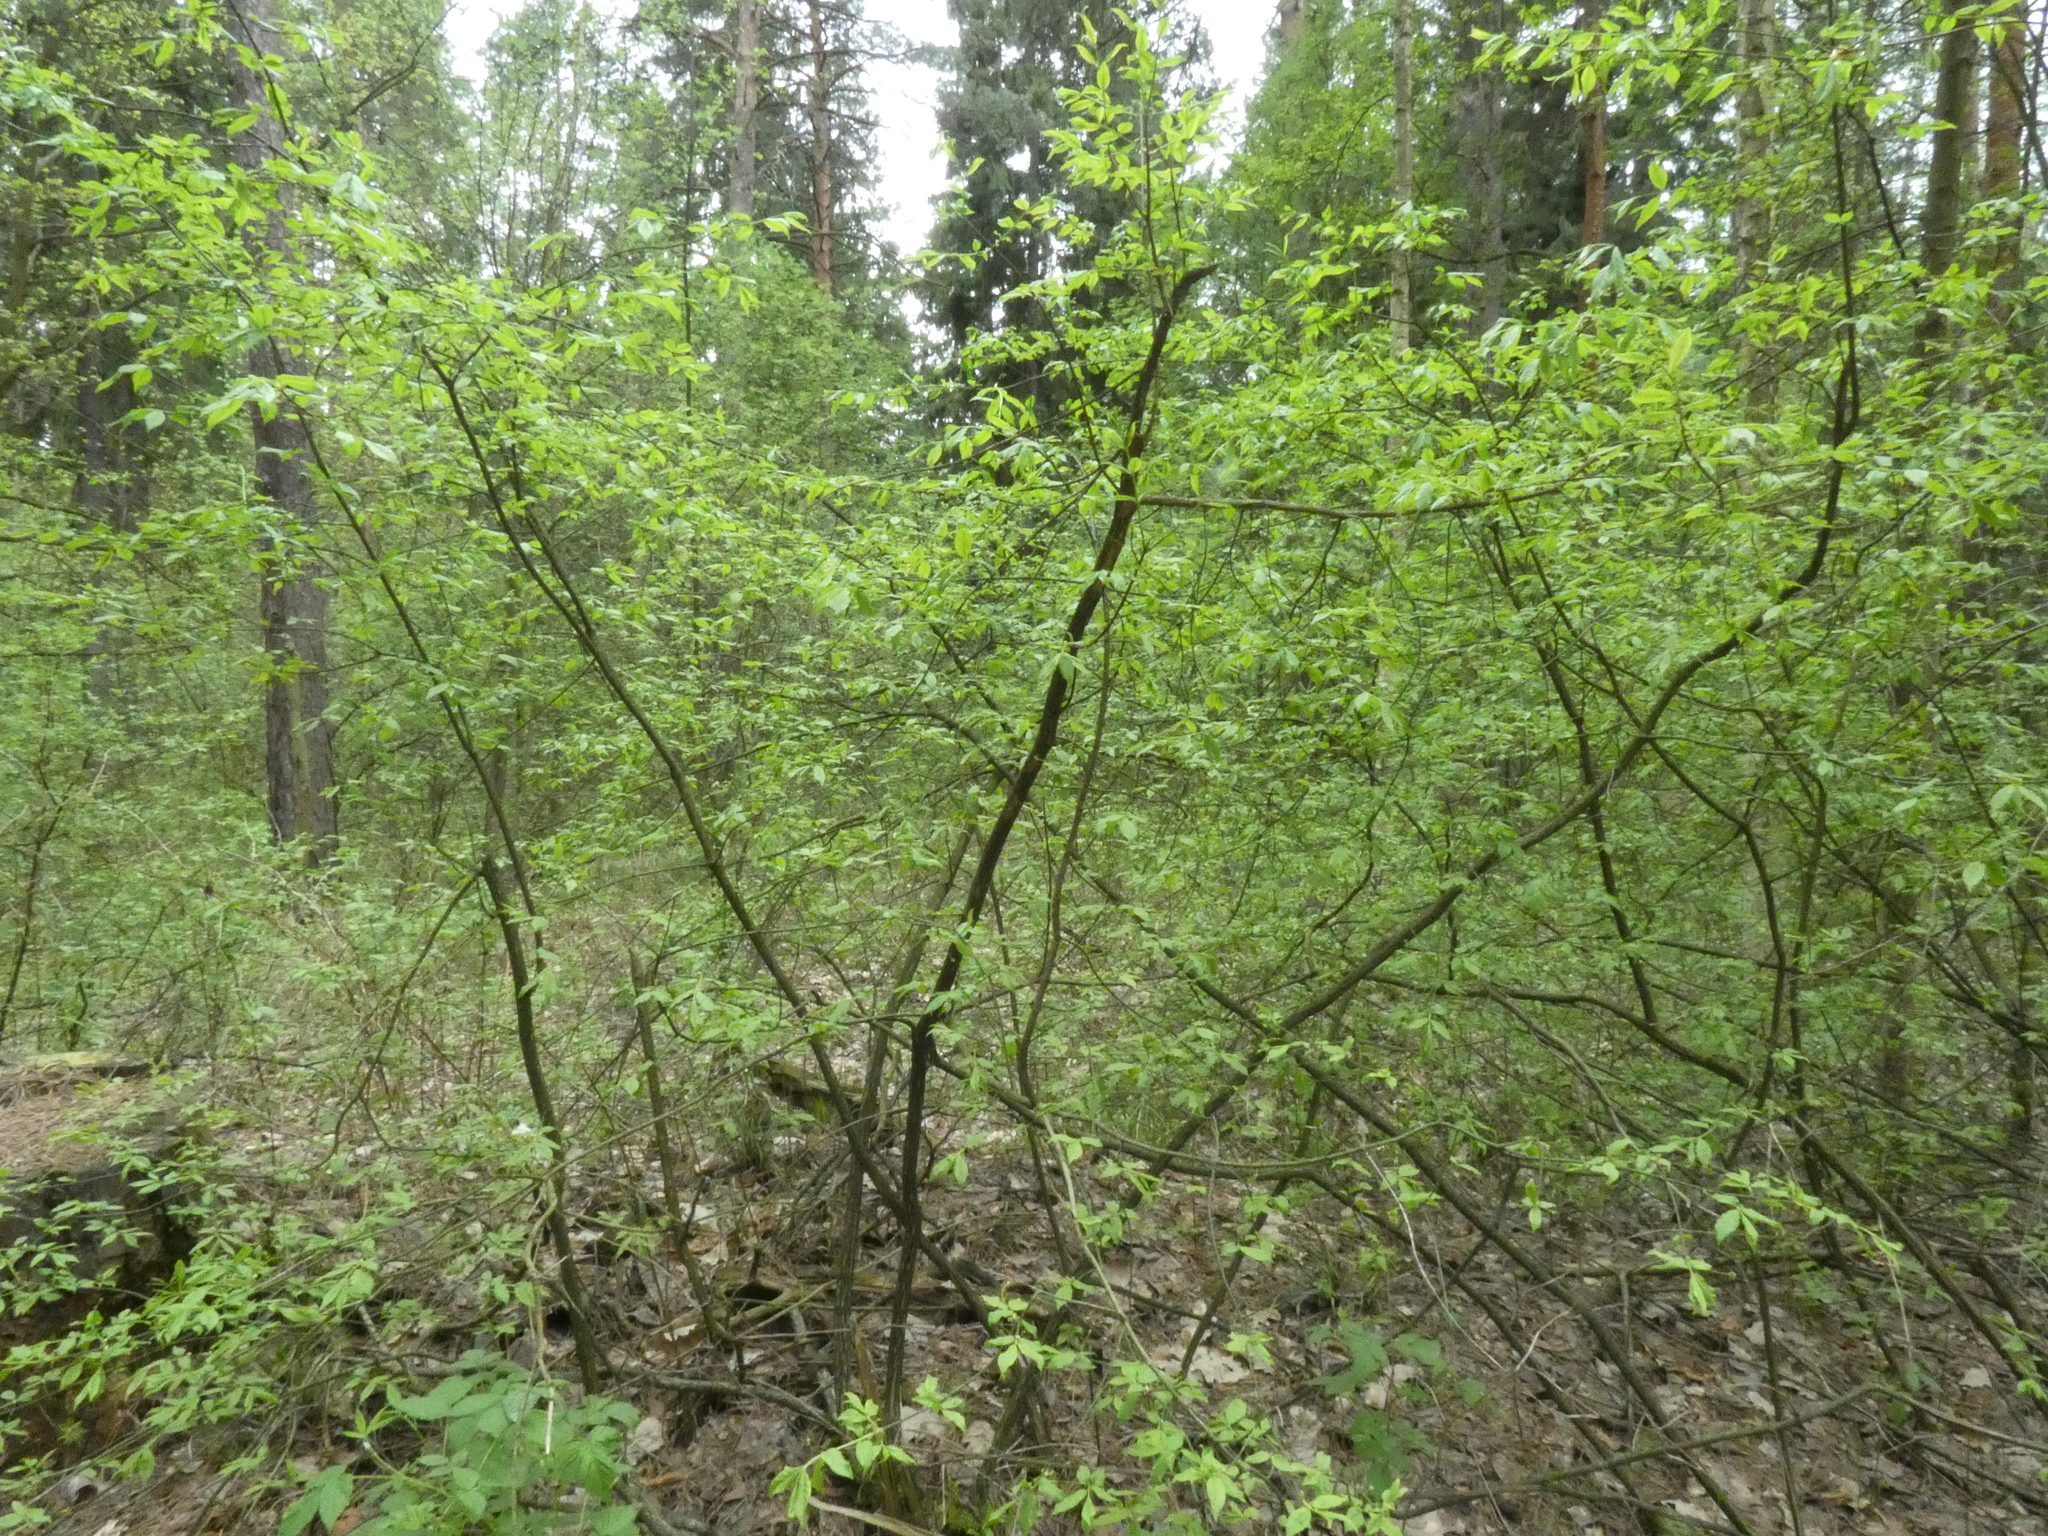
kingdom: Plantae
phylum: Tracheophyta
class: Magnoliopsida
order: Celastrales
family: Celastraceae
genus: Euonymus
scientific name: Euonymus verrucosus
